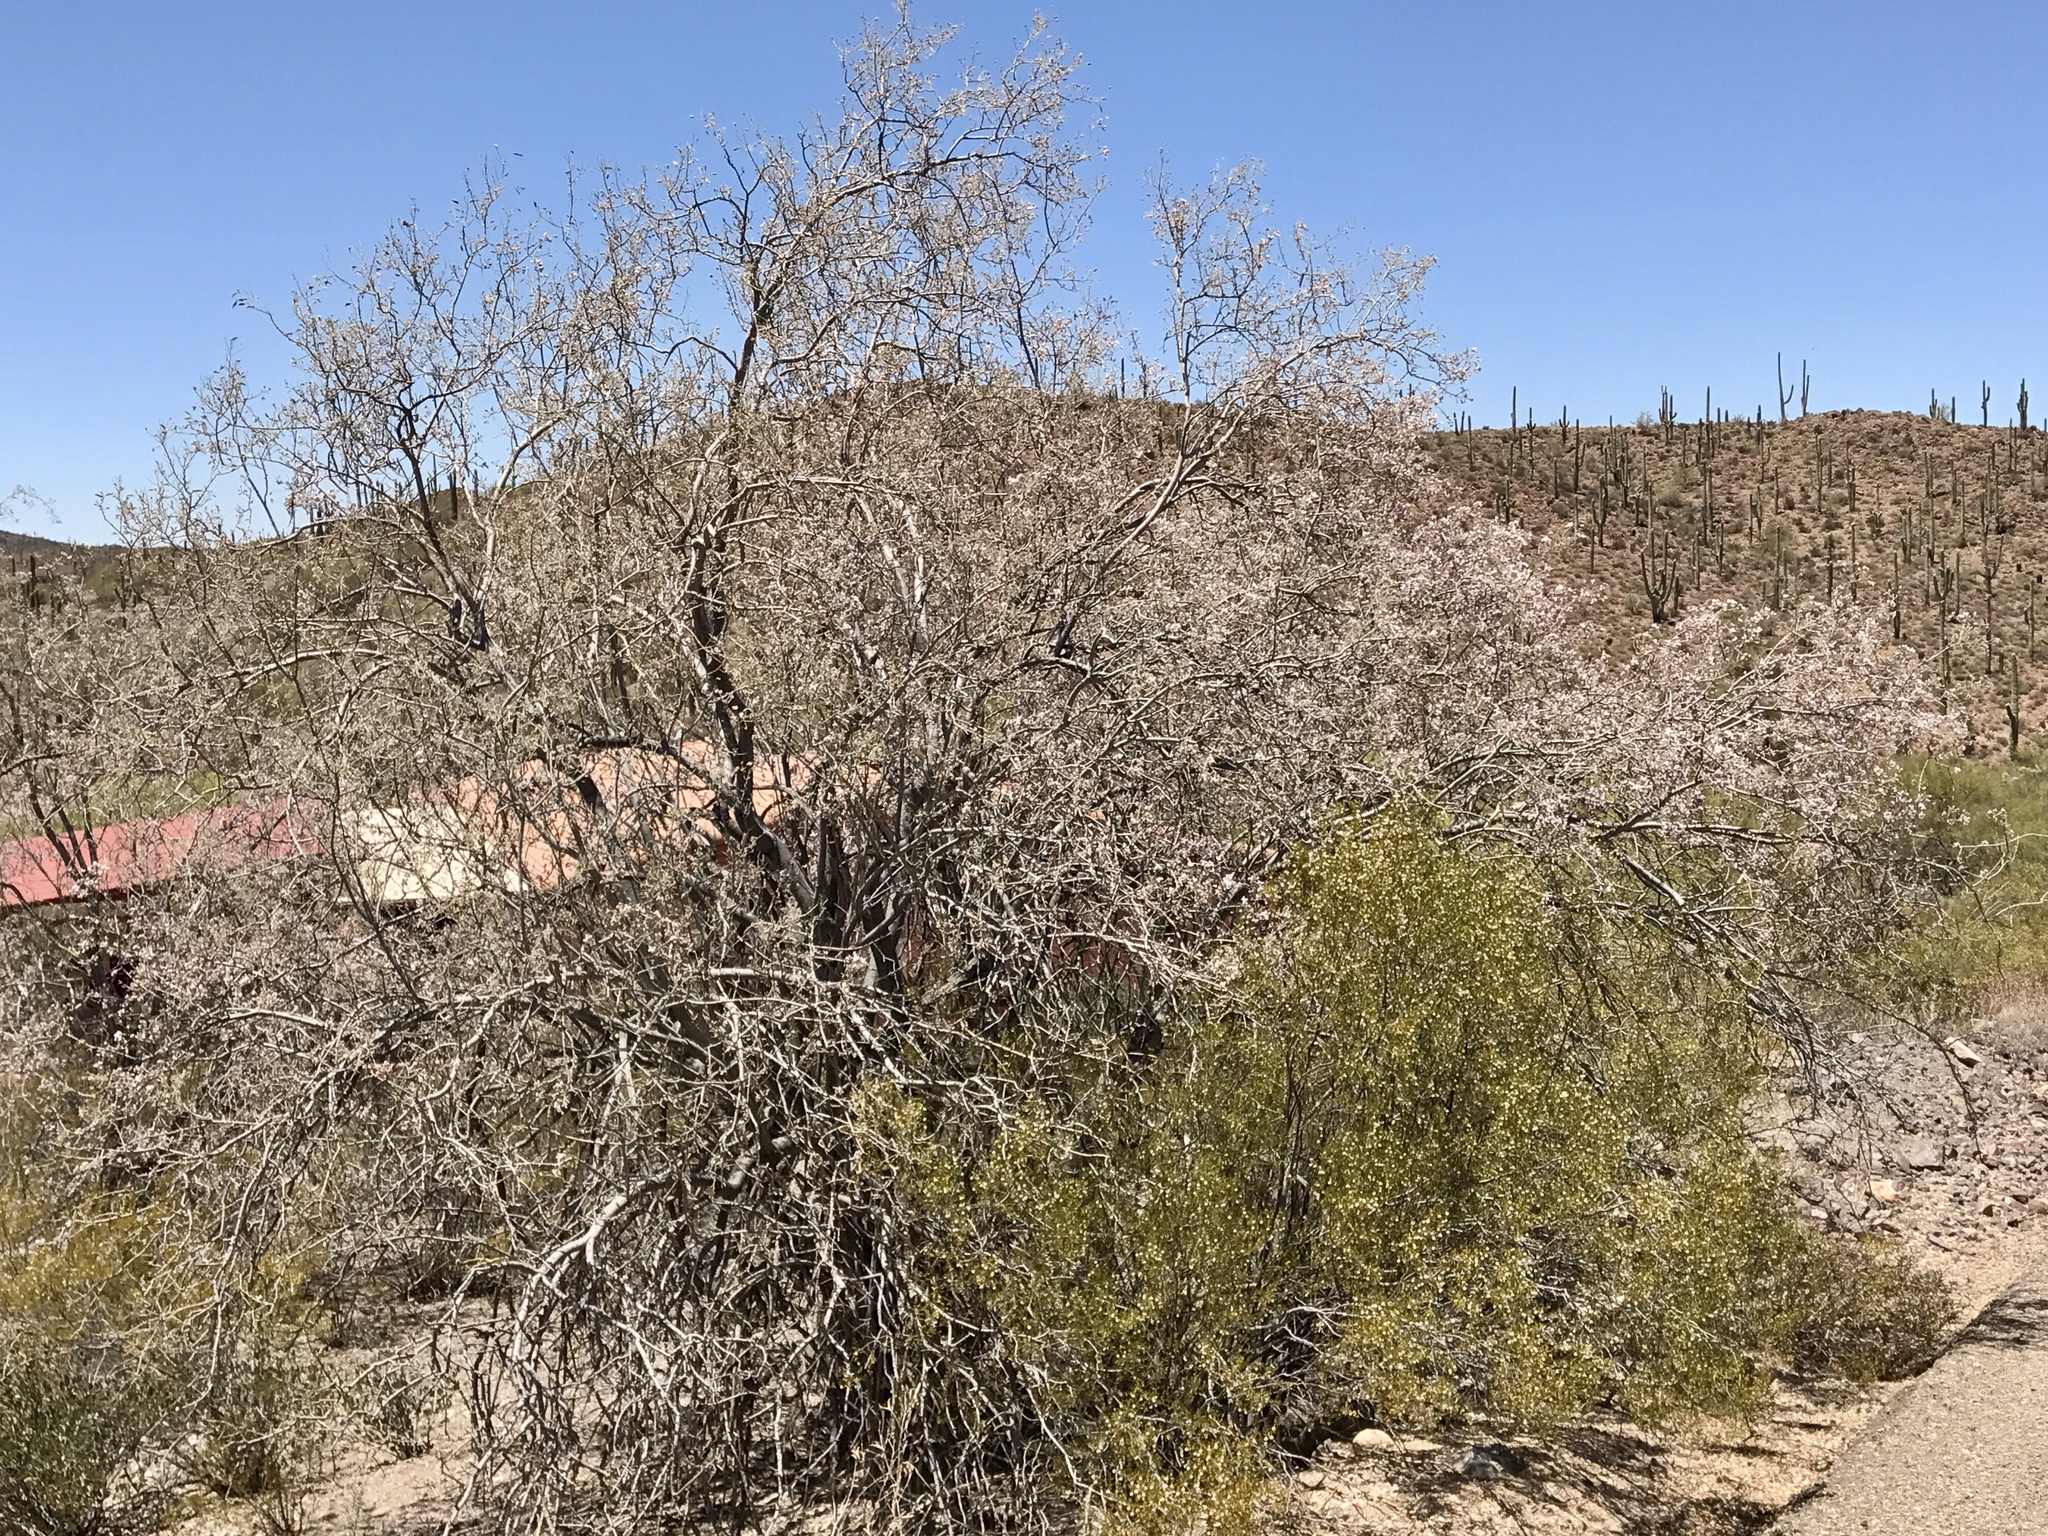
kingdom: Plantae
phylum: Tracheophyta
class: Magnoliopsida
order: Fabales
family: Fabaceae
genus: Olneya
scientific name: Olneya tesota
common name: Desert ironwood
